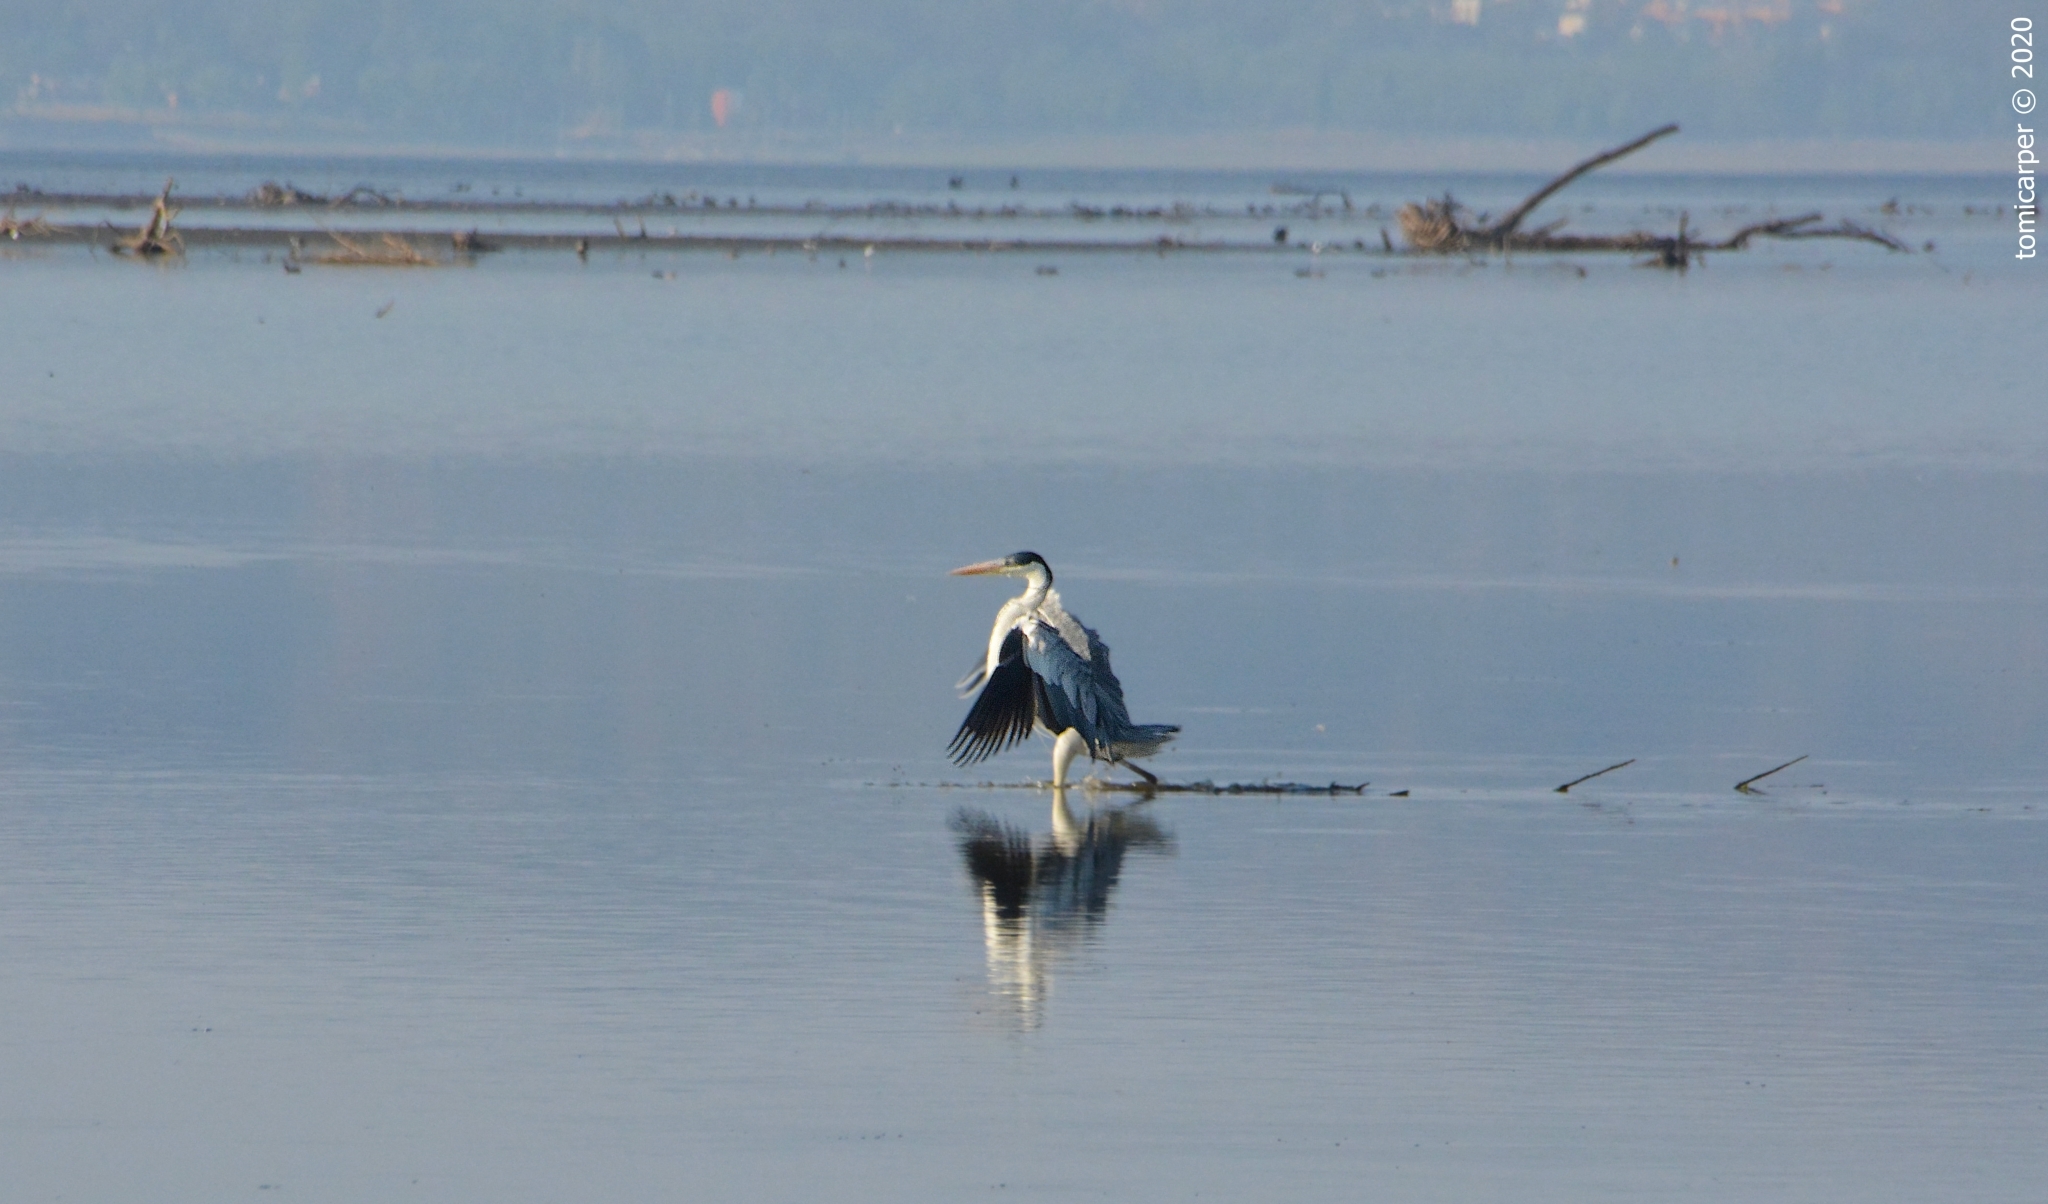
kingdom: Animalia
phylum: Chordata
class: Aves
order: Pelecaniformes
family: Ardeidae
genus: Ardea
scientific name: Ardea cocoi
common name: Cocoi heron
